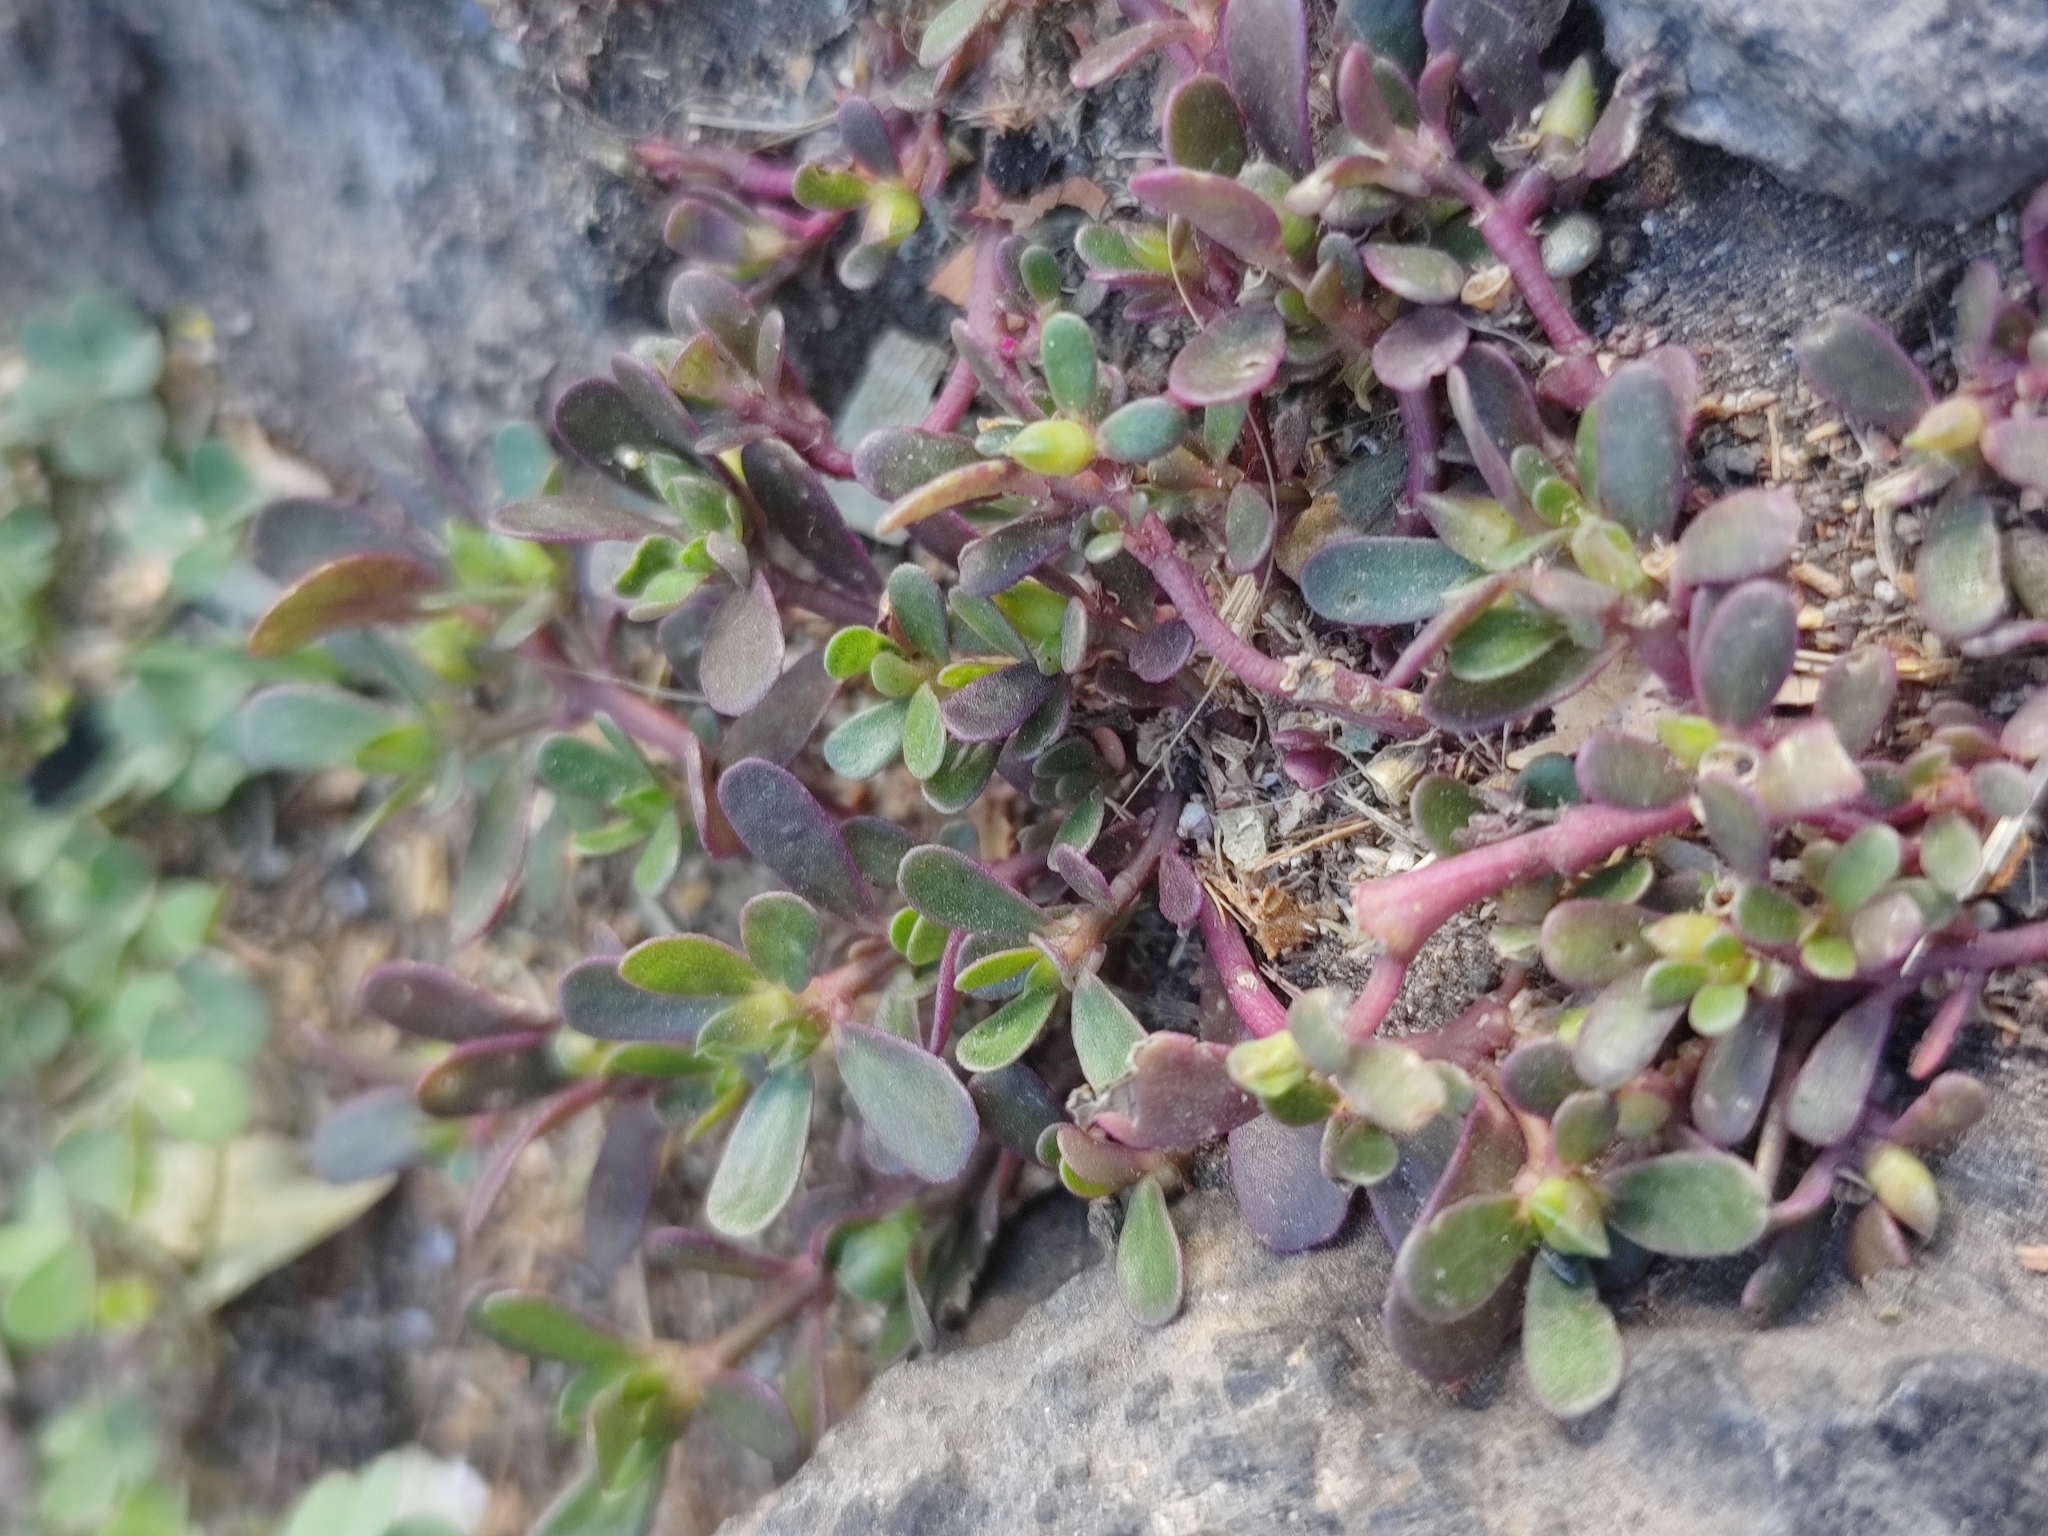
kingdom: Plantae
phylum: Tracheophyta
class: Magnoliopsida
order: Caryophyllales
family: Portulacaceae
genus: Portulaca
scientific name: Portulaca oleracea
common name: Common purslane
